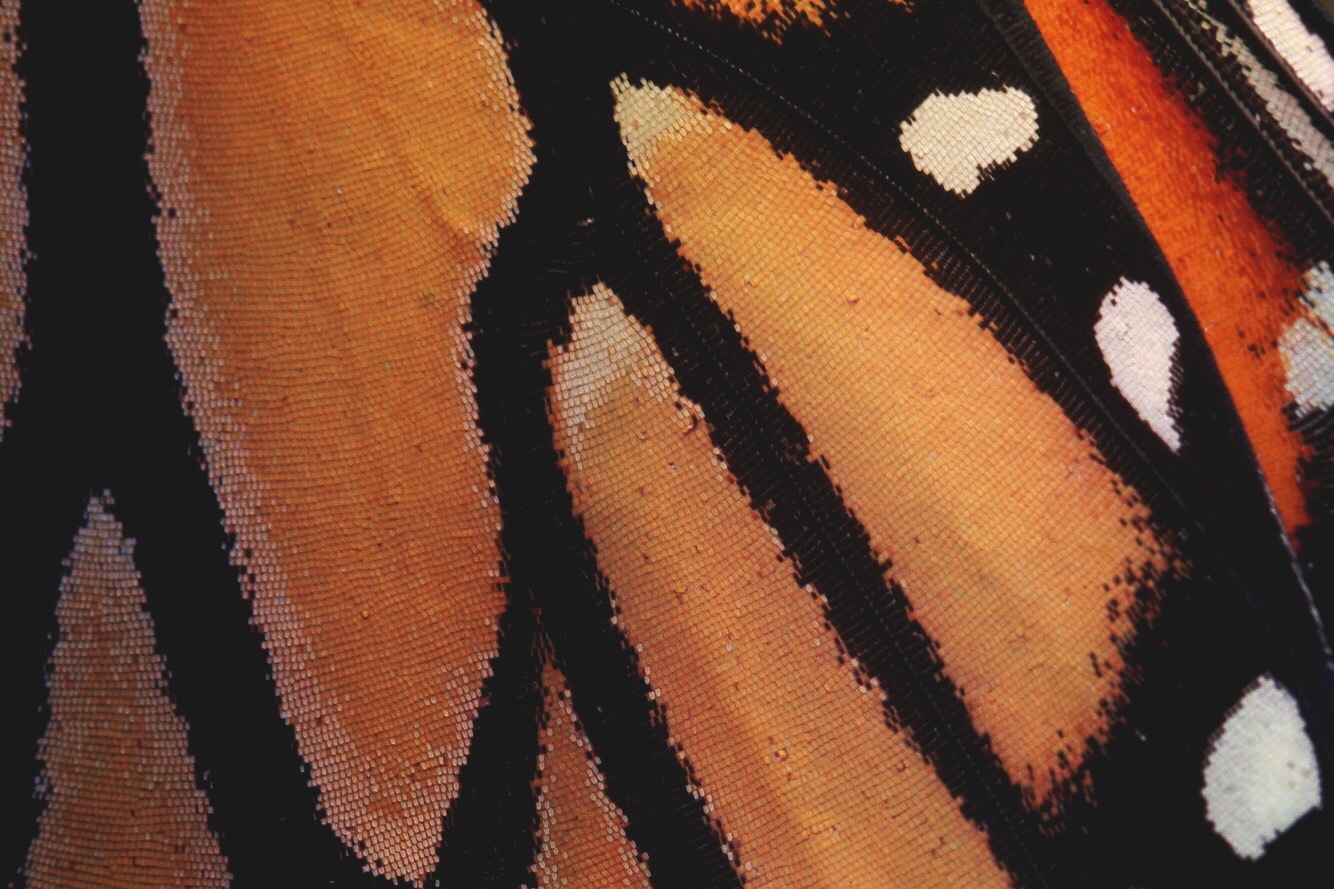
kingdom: Animalia
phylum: Arthropoda
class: Insecta
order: Lepidoptera
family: Nymphalidae
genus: Danaus
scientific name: Danaus plexippus
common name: Monarch
